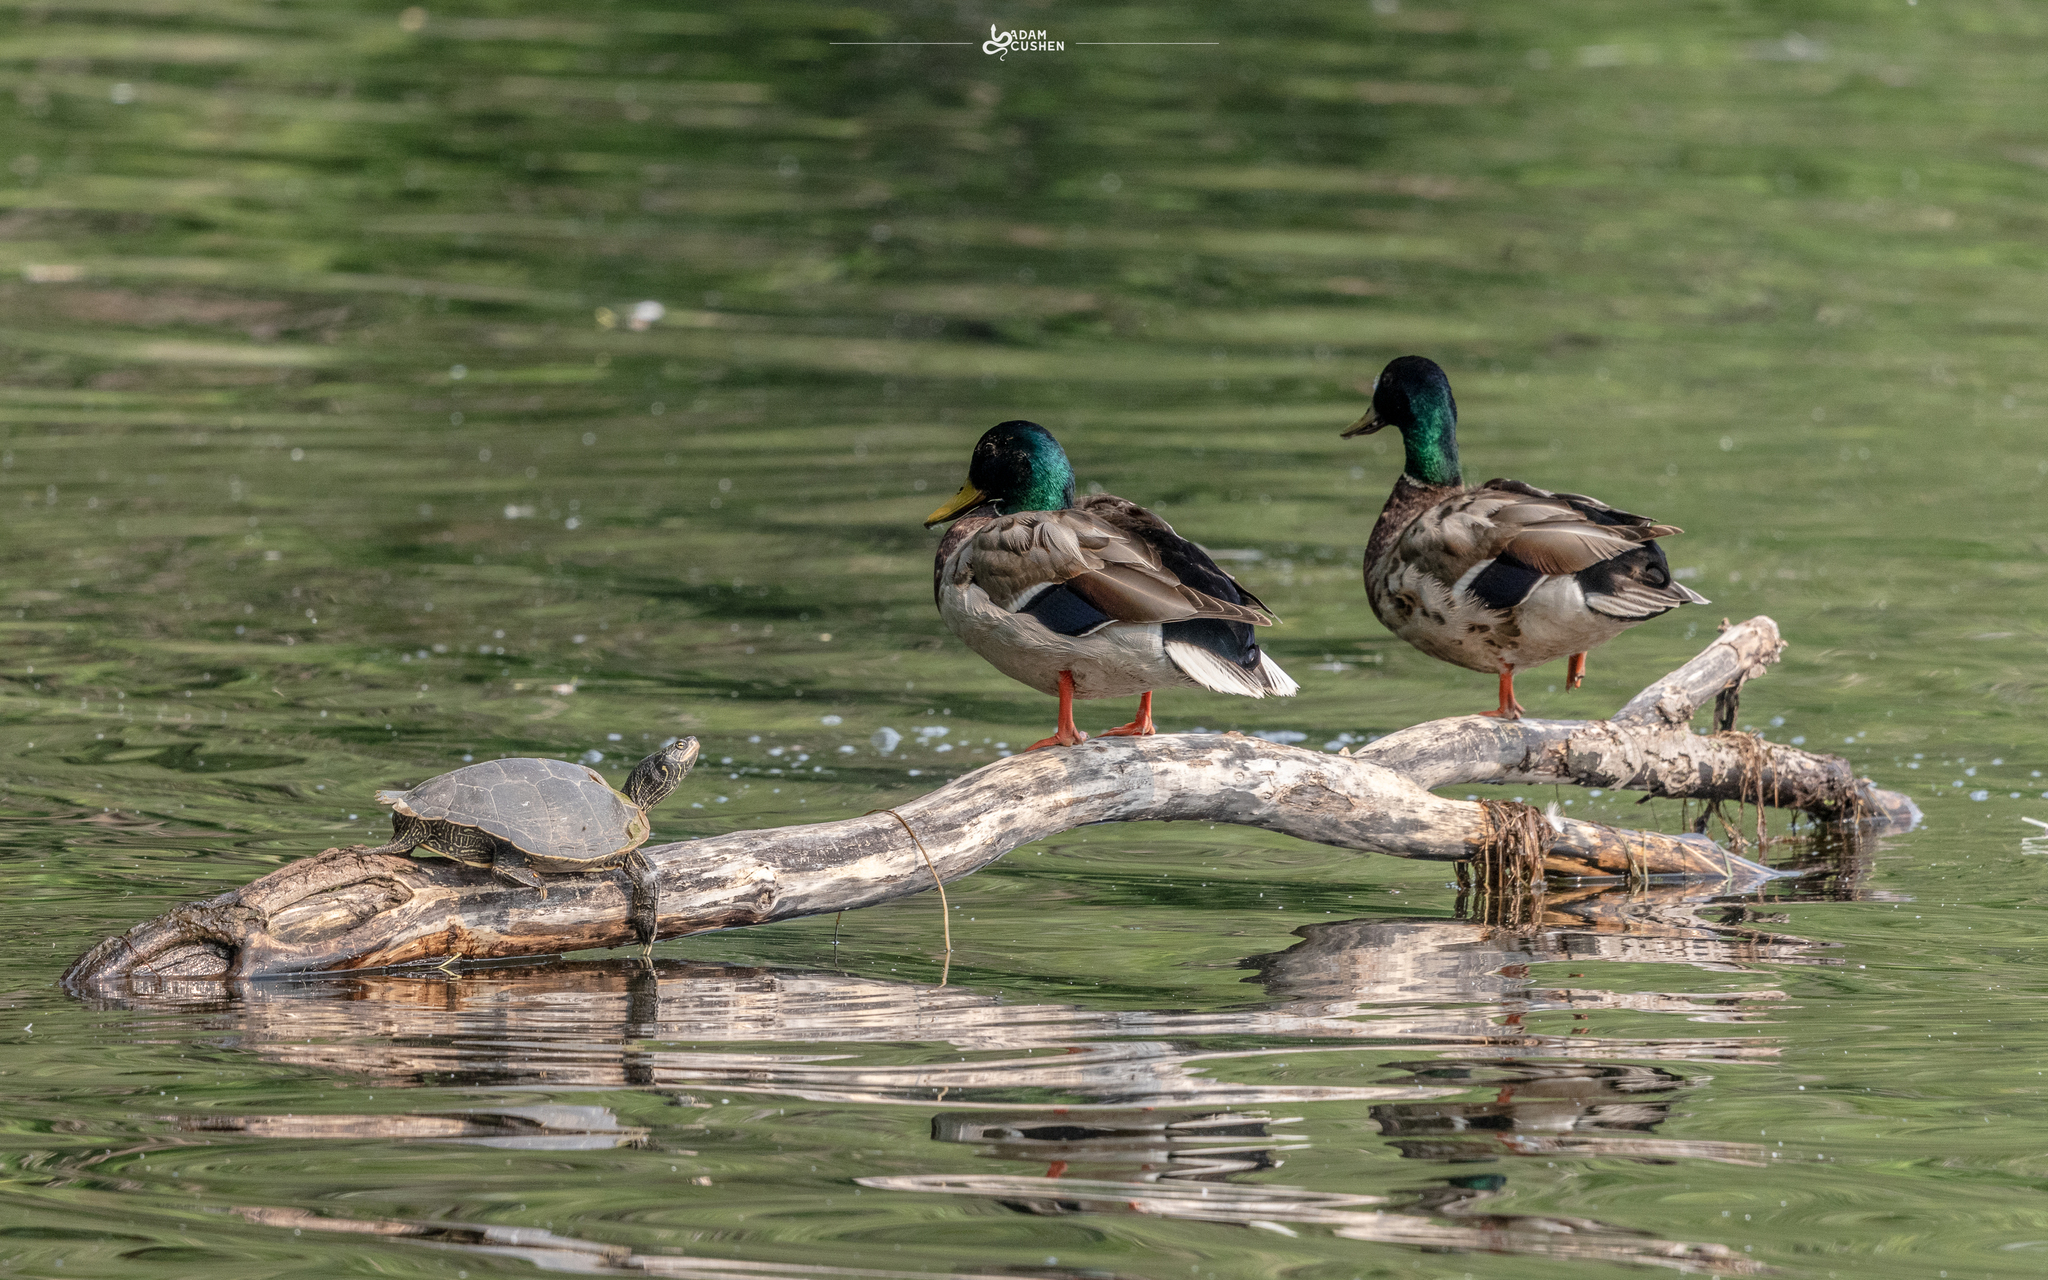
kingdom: Animalia
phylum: Chordata
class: Testudines
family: Emydidae
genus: Graptemys
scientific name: Graptemys geographica
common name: Common map turtle
